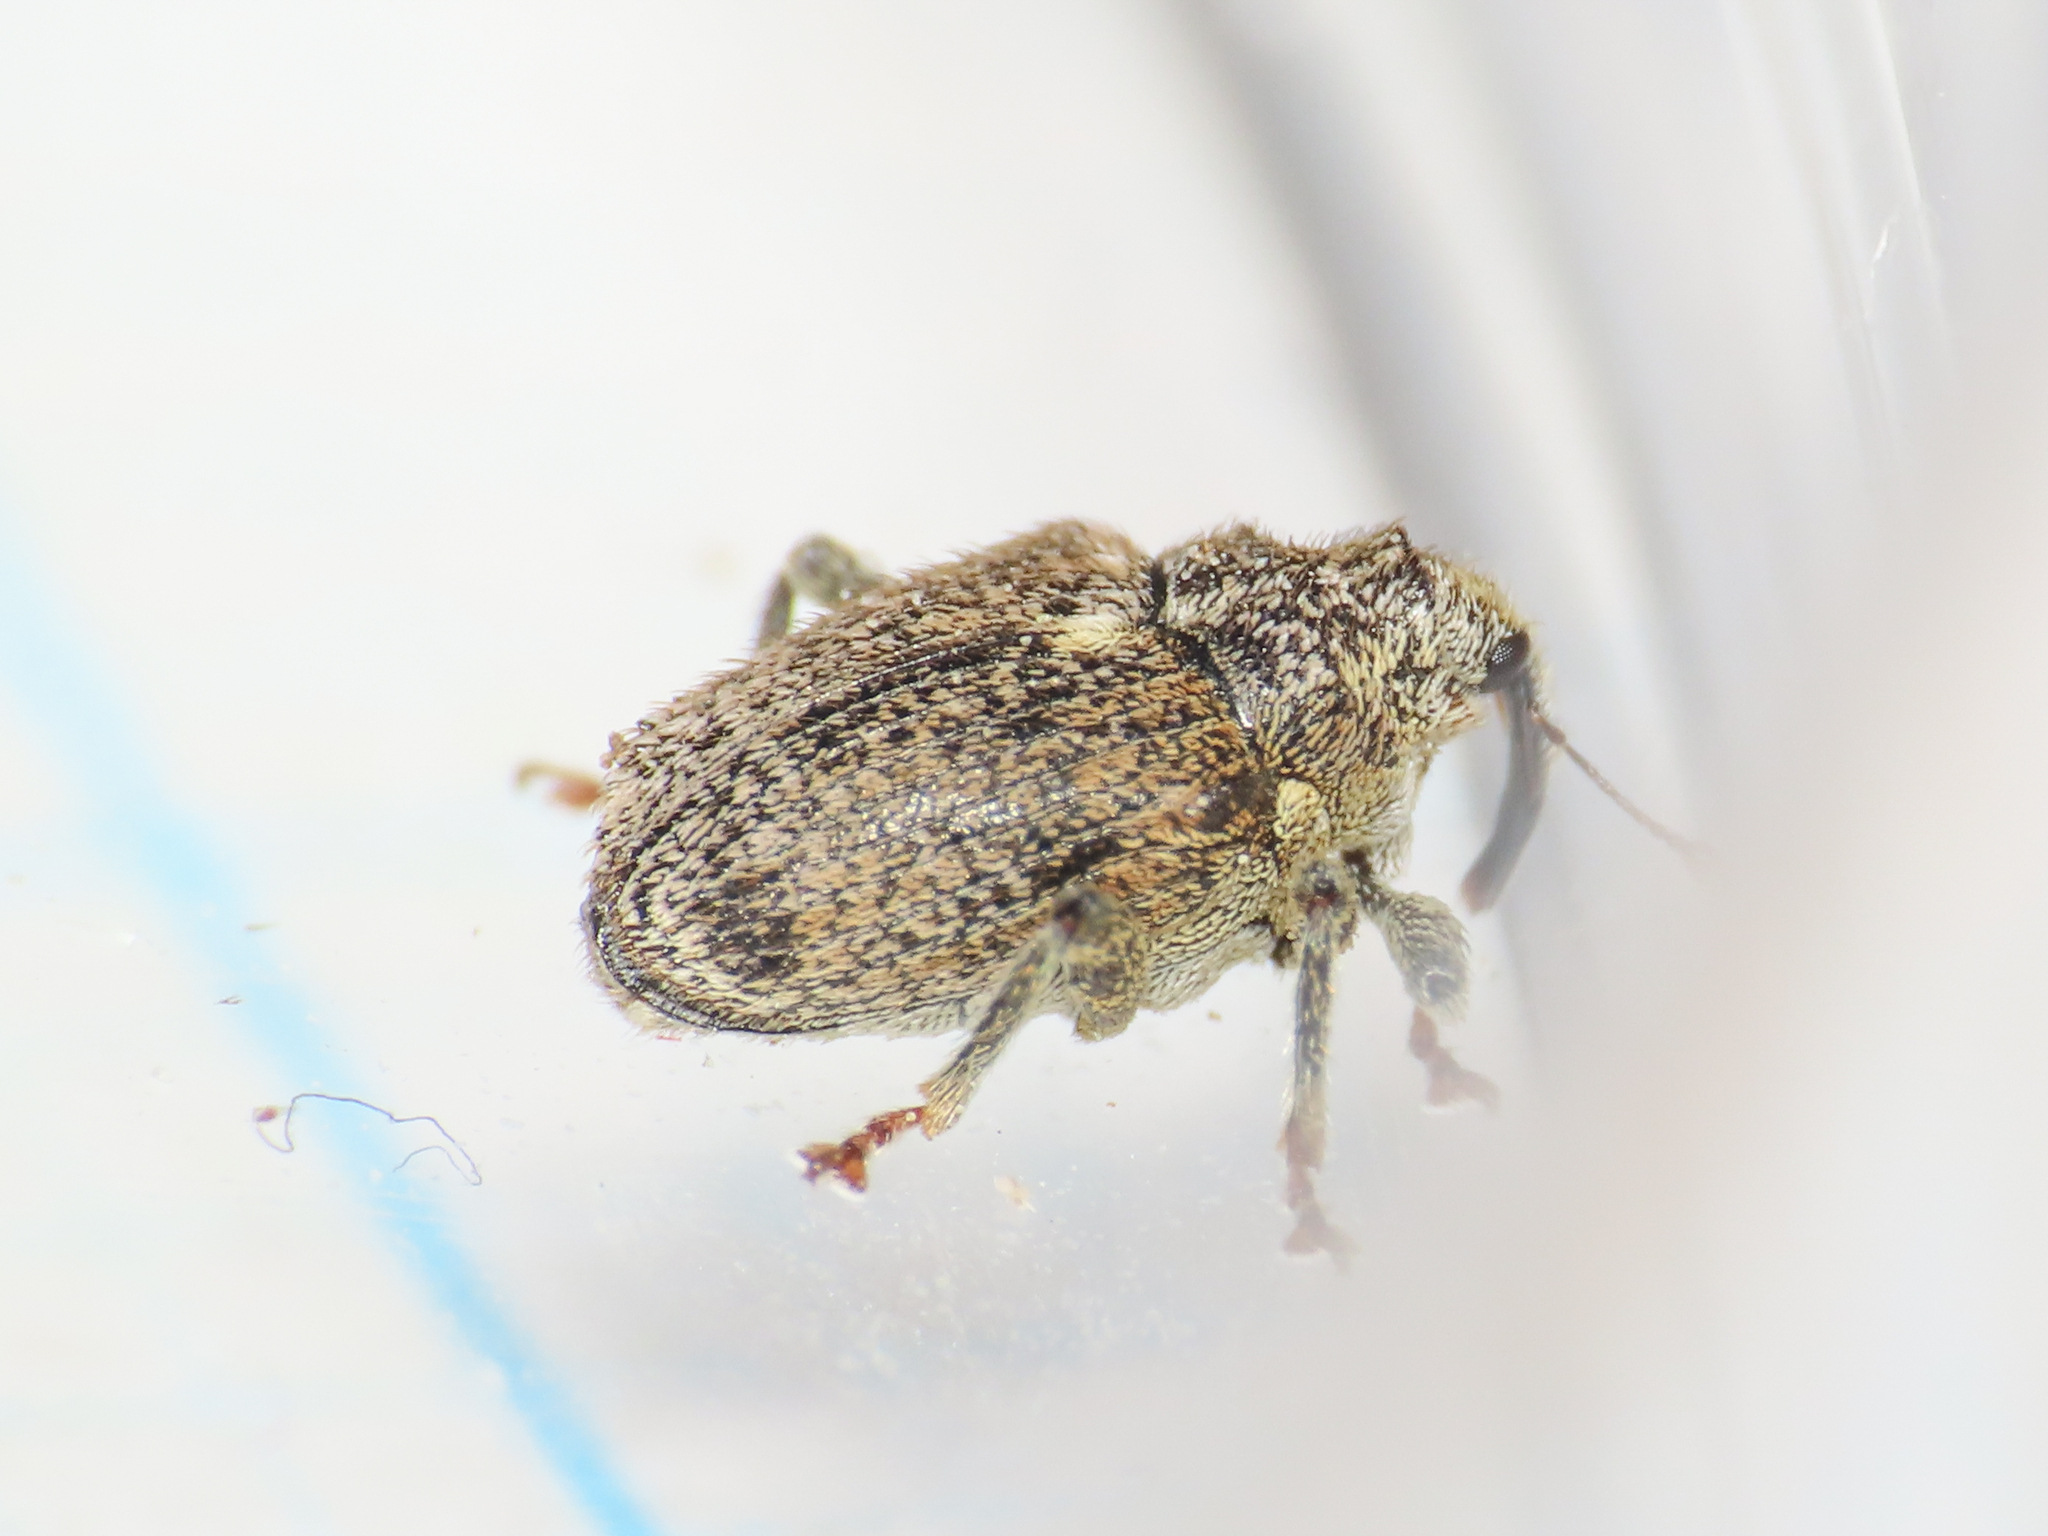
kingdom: Animalia
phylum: Arthropoda
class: Insecta
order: Coleoptera
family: Curculionidae
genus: Ceutorhynchus
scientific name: Ceutorhynchus pallidactylus
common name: Cabbage stem weavil
